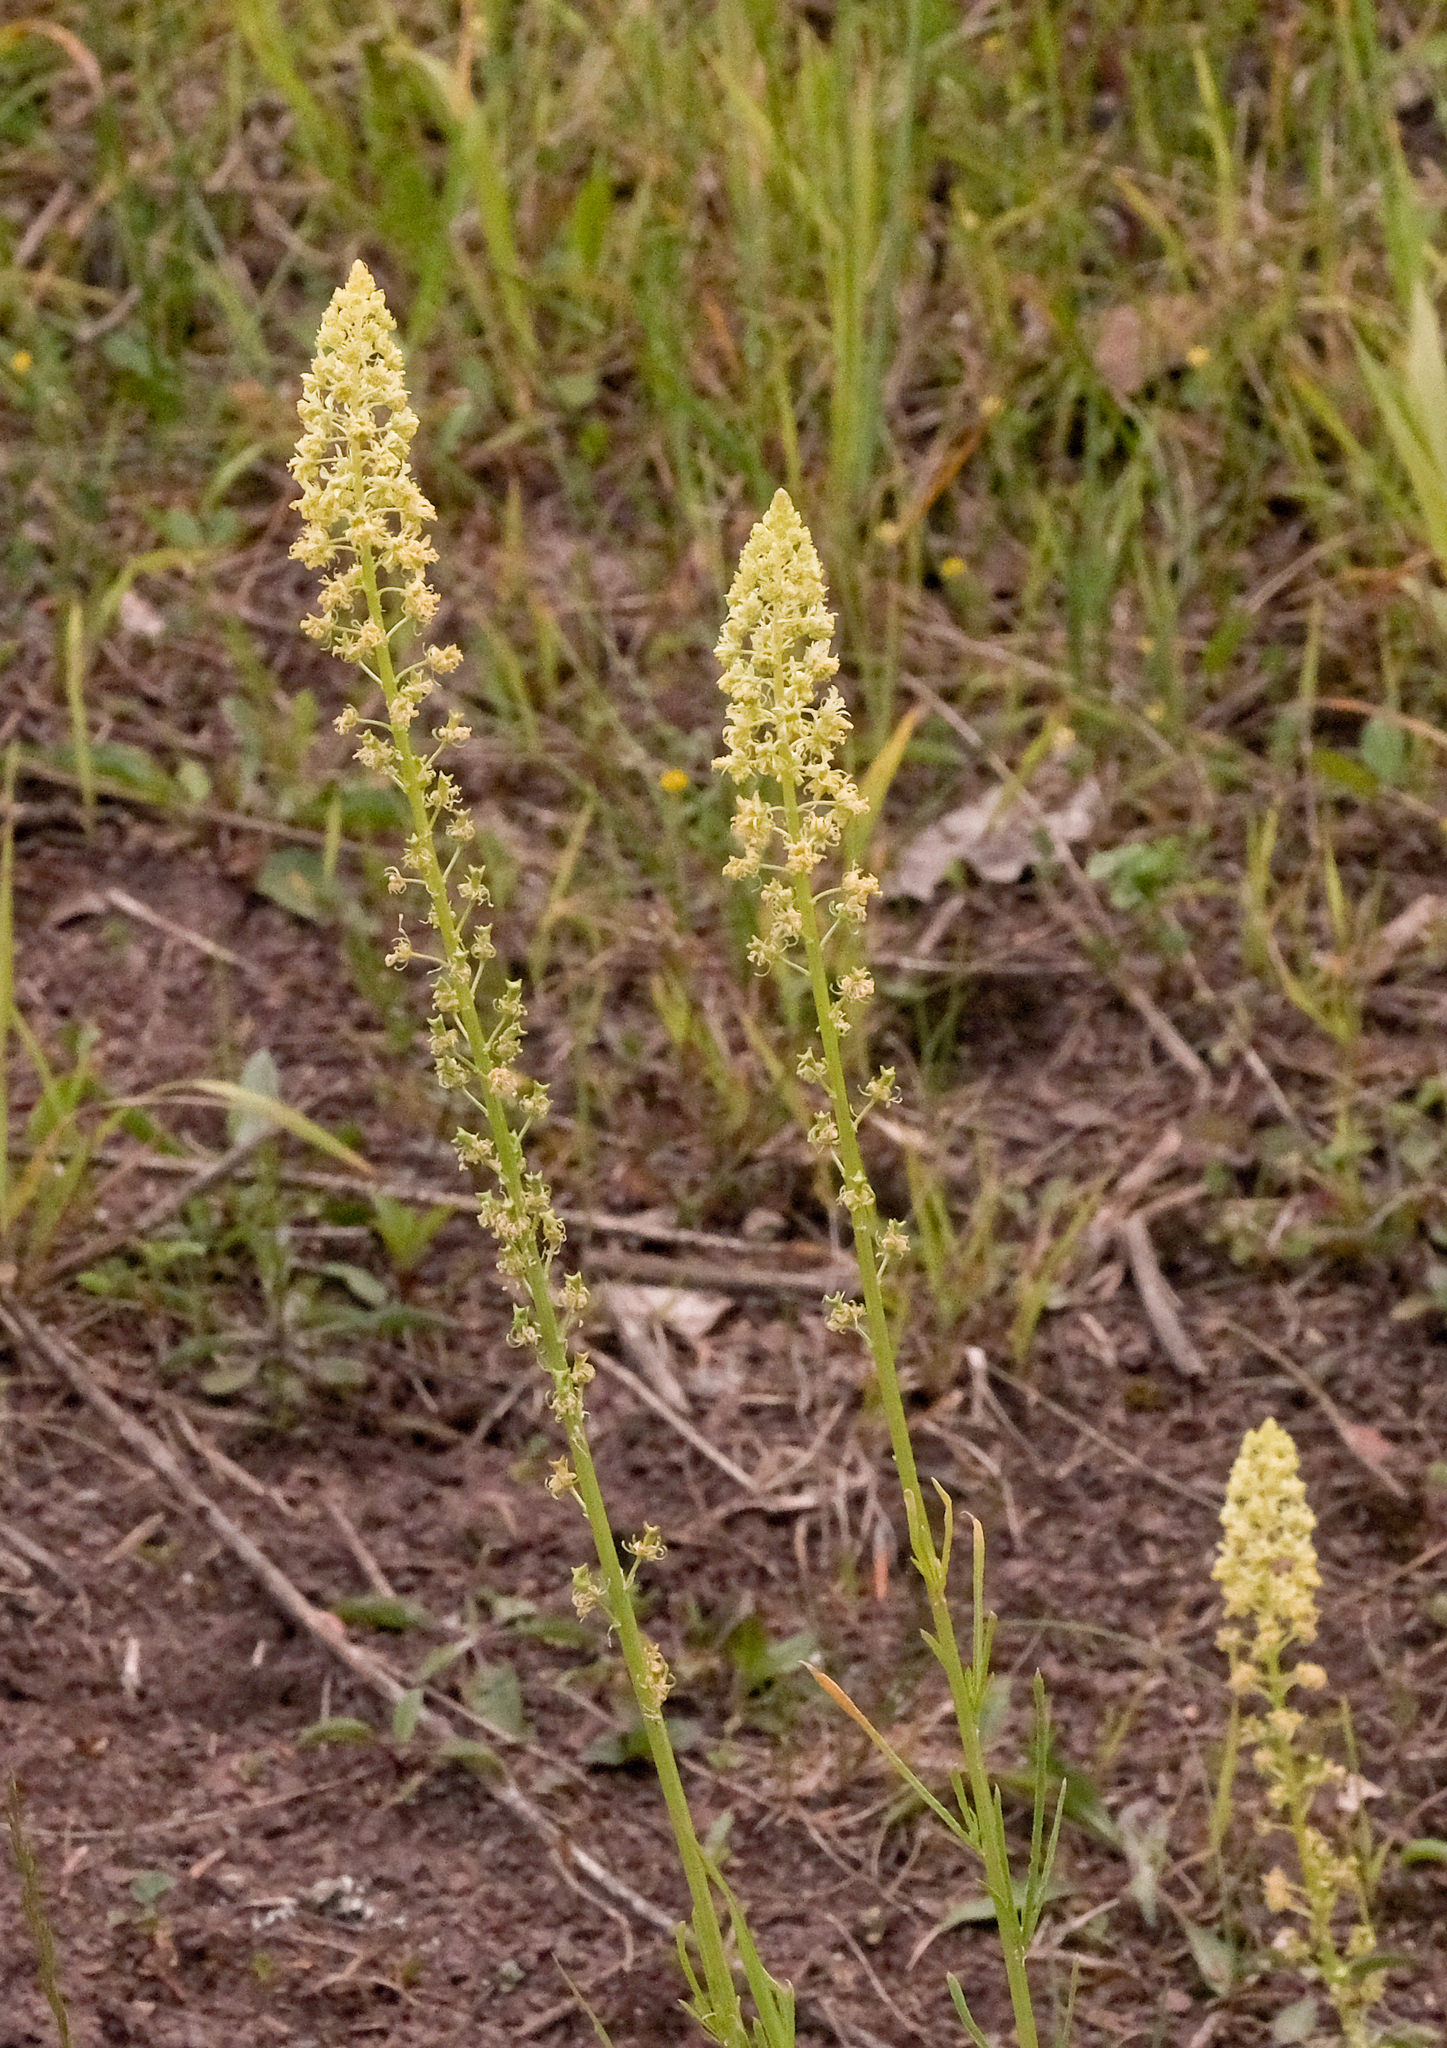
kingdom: Plantae
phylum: Tracheophyta
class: Magnoliopsida
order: Brassicales
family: Resedaceae
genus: Reseda
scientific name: Reseda lutea
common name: Wild mignonette
